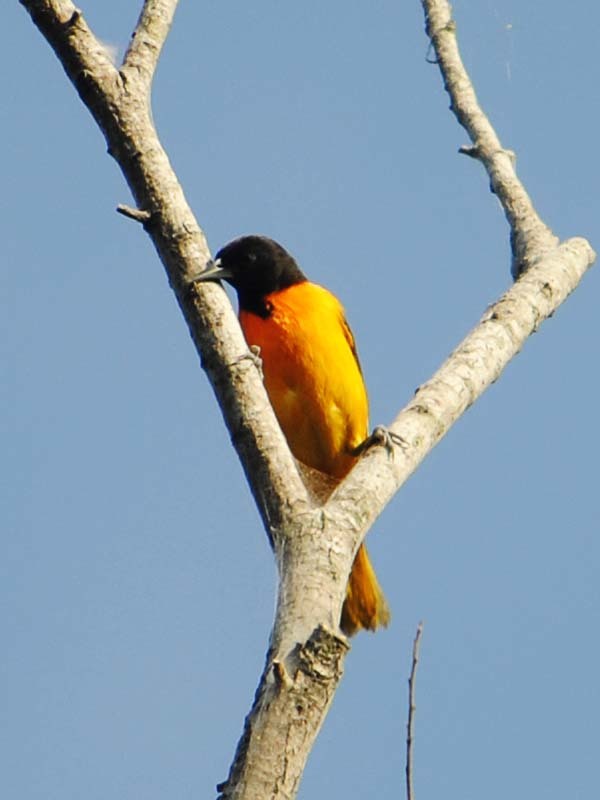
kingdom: Animalia
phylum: Chordata
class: Aves
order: Passeriformes
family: Icteridae
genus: Icterus
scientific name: Icterus galbula
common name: Baltimore oriole
